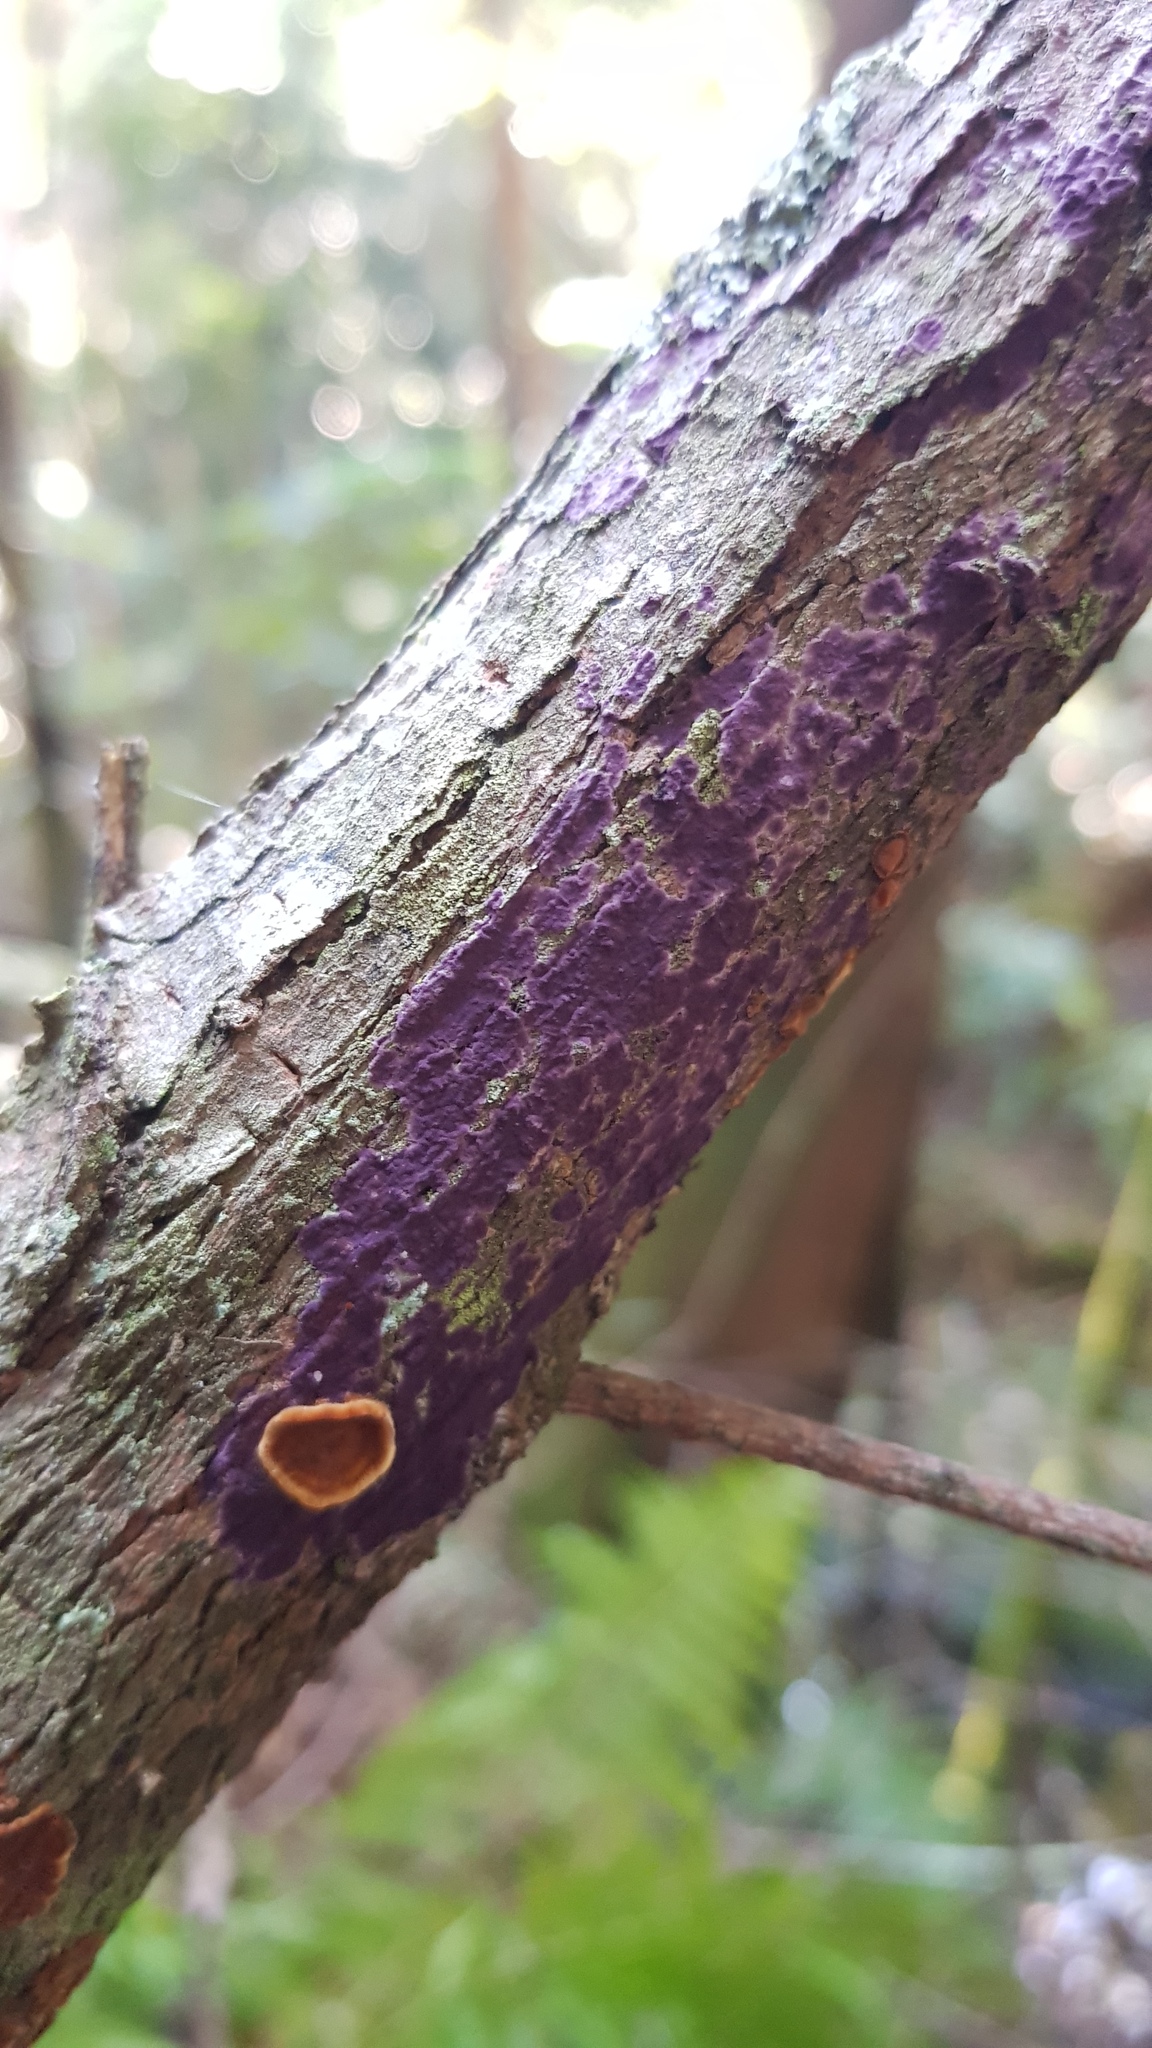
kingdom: Fungi
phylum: Basidiomycota
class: Agaricomycetes
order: Polyporales
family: Phanerochaetaceae
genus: Phlebiopsis
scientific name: Phlebiopsis crassa
